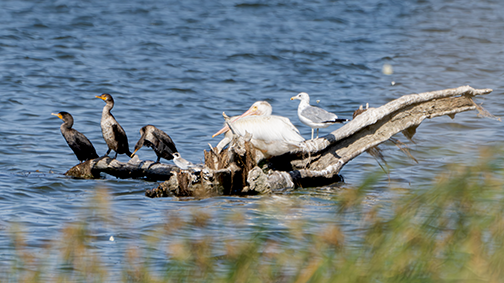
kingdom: Animalia
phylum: Chordata
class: Aves
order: Suliformes
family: Phalacrocoracidae
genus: Phalacrocorax
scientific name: Phalacrocorax auritus
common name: Double-crested cormorant
